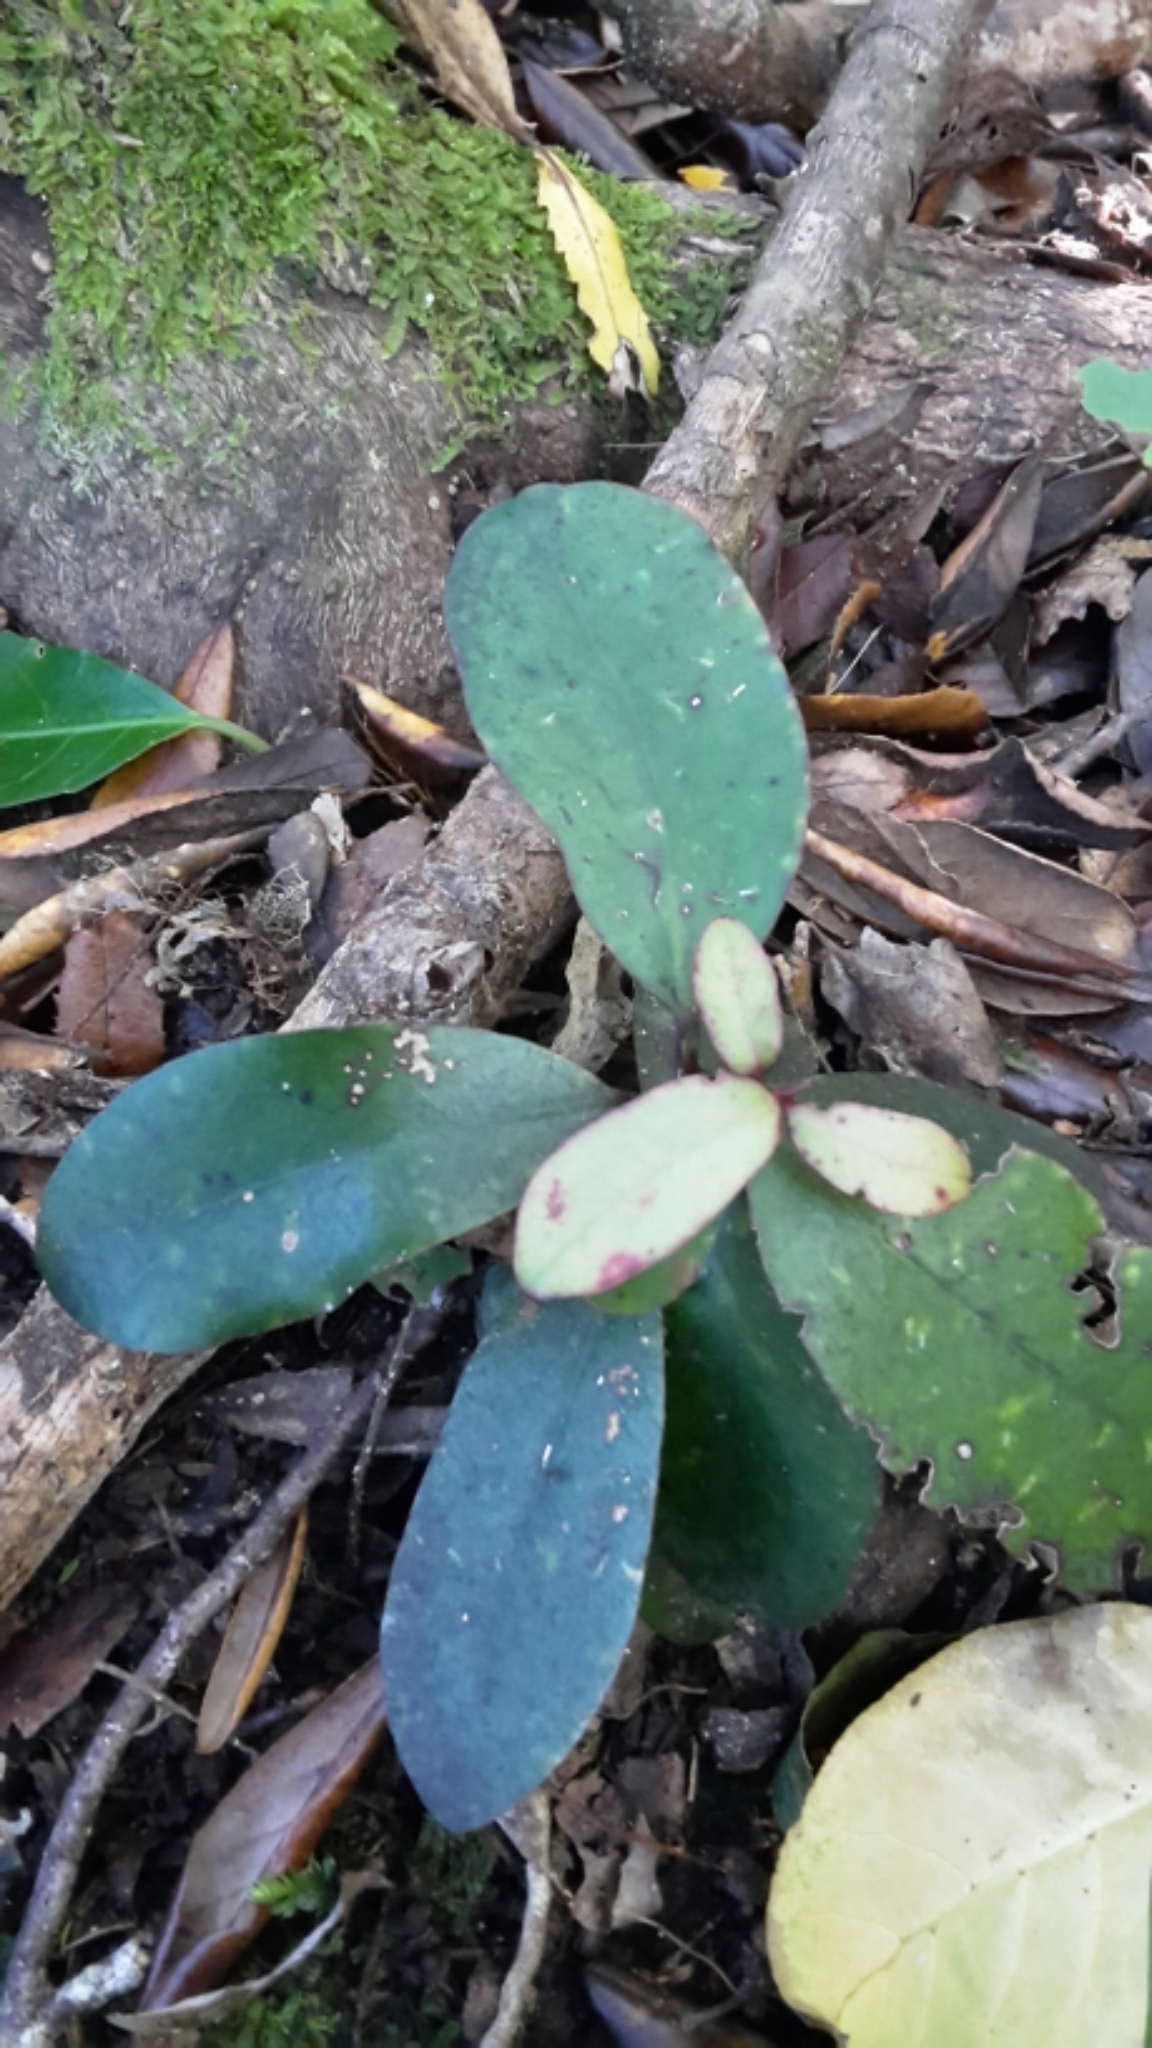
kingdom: Plantae
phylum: Tracheophyta
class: Magnoliopsida
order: Canellales
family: Winteraceae
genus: Pseudowintera
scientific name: Pseudowintera colorata
